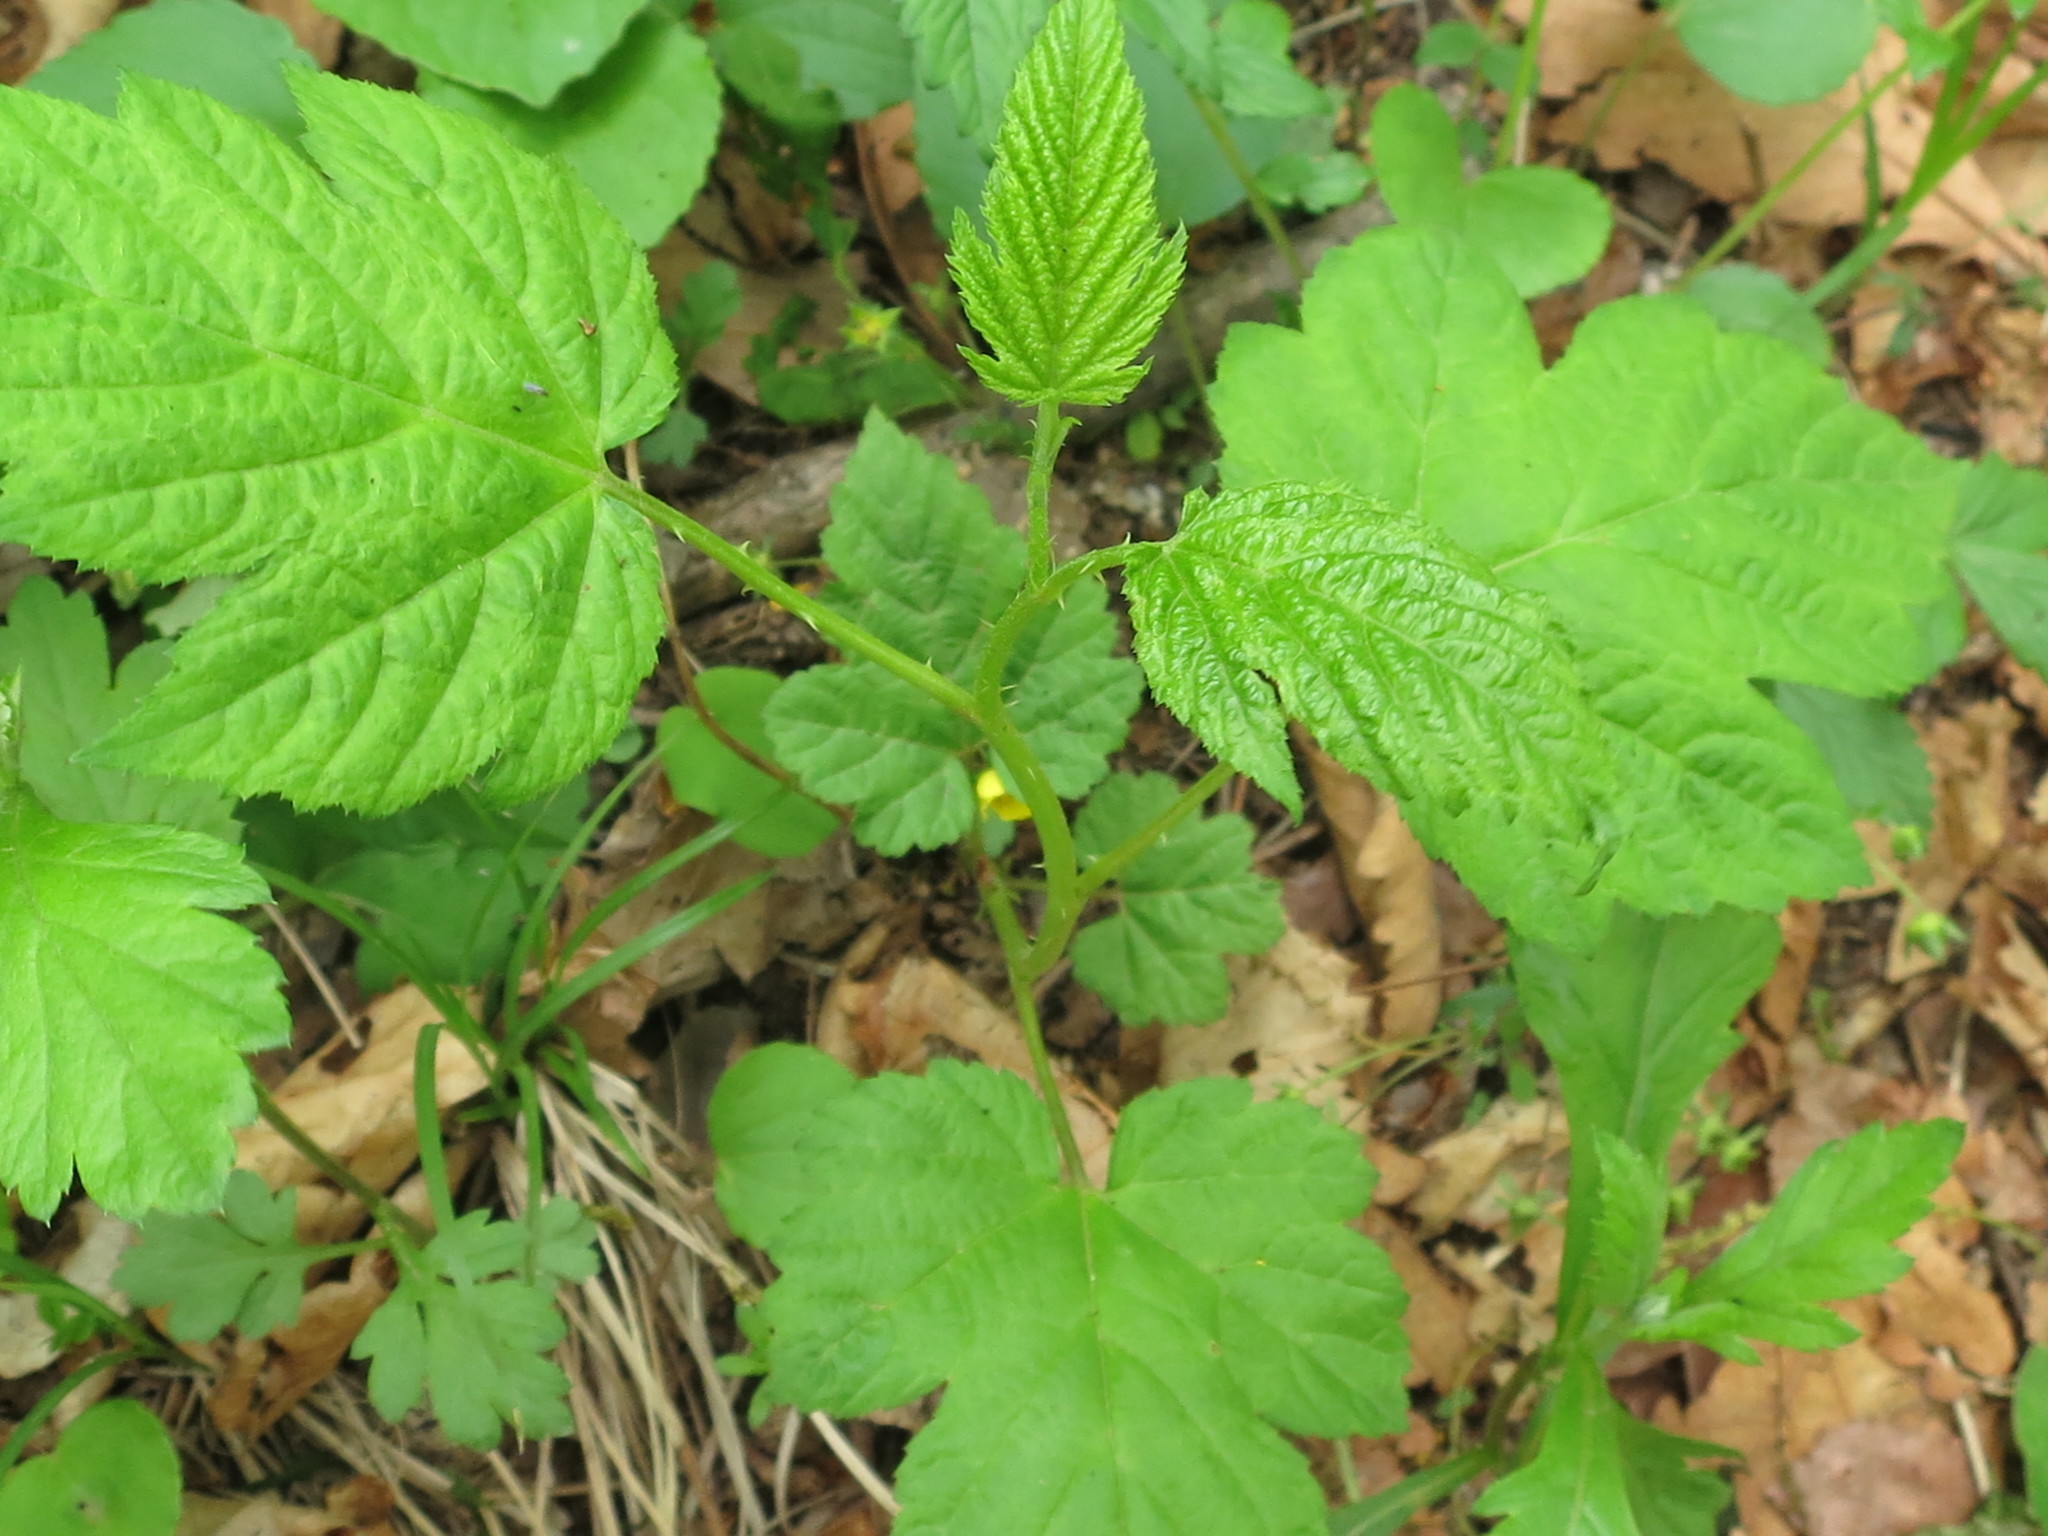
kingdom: Plantae
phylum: Tracheophyta
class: Magnoliopsida
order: Rosales
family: Rosaceae
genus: Rubus
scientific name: Rubus crataegifolius
